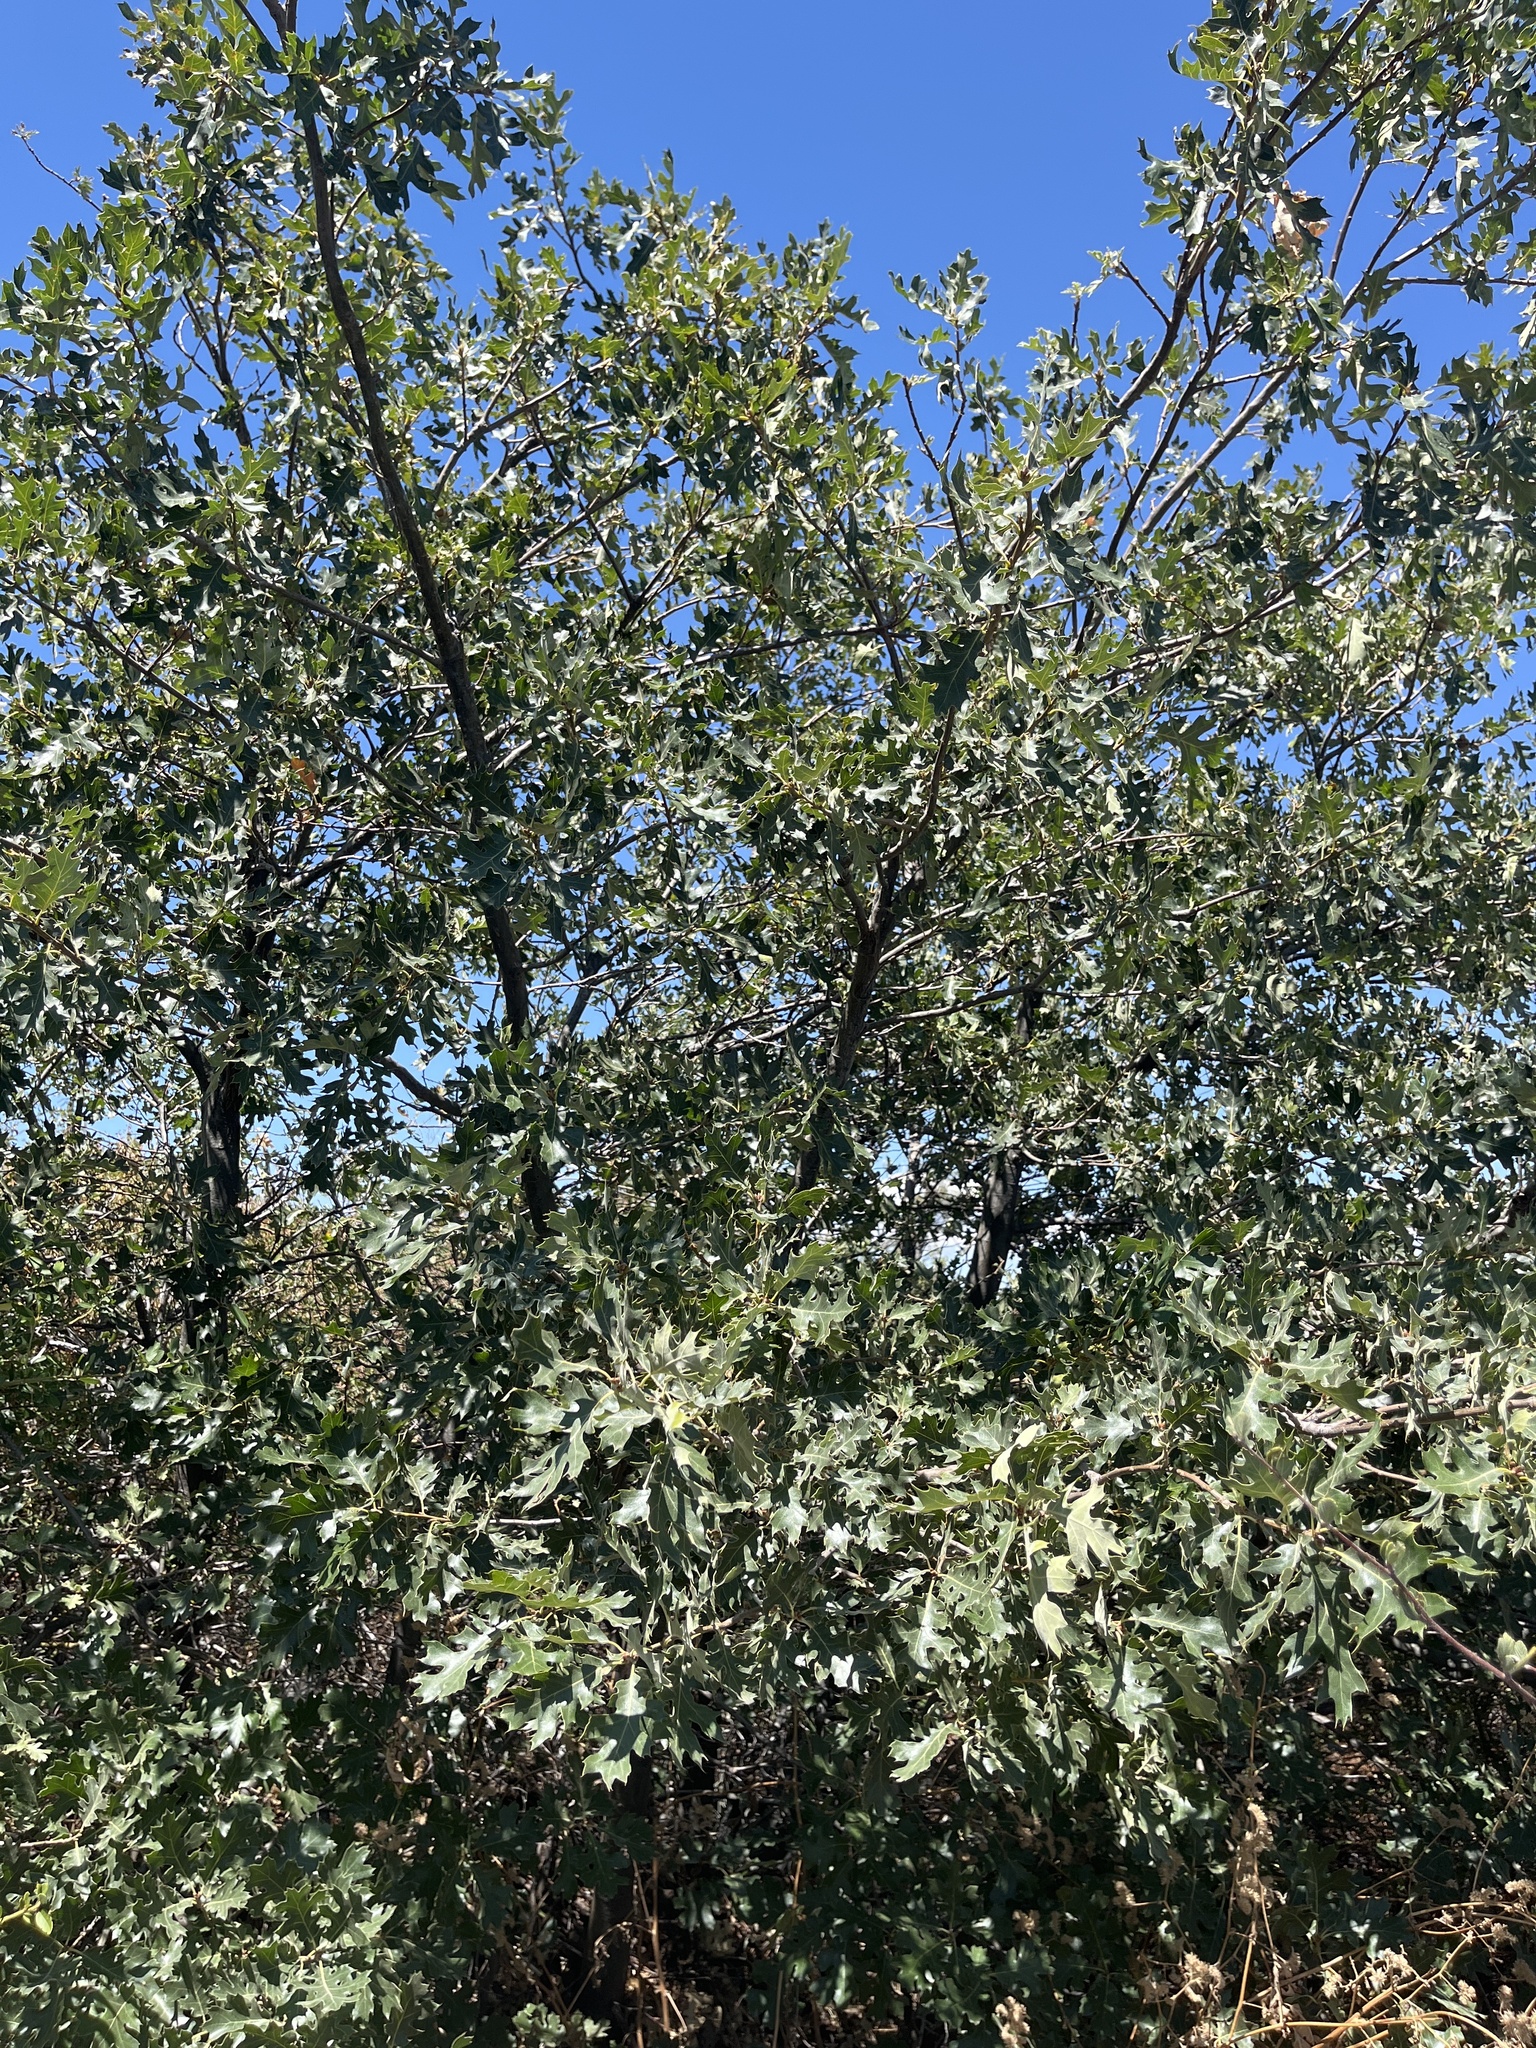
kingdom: Plantae
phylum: Tracheophyta
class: Magnoliopsida
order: Fagales
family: Fagaceae
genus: Quercus
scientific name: Quercus kelloggii
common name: California black oak
